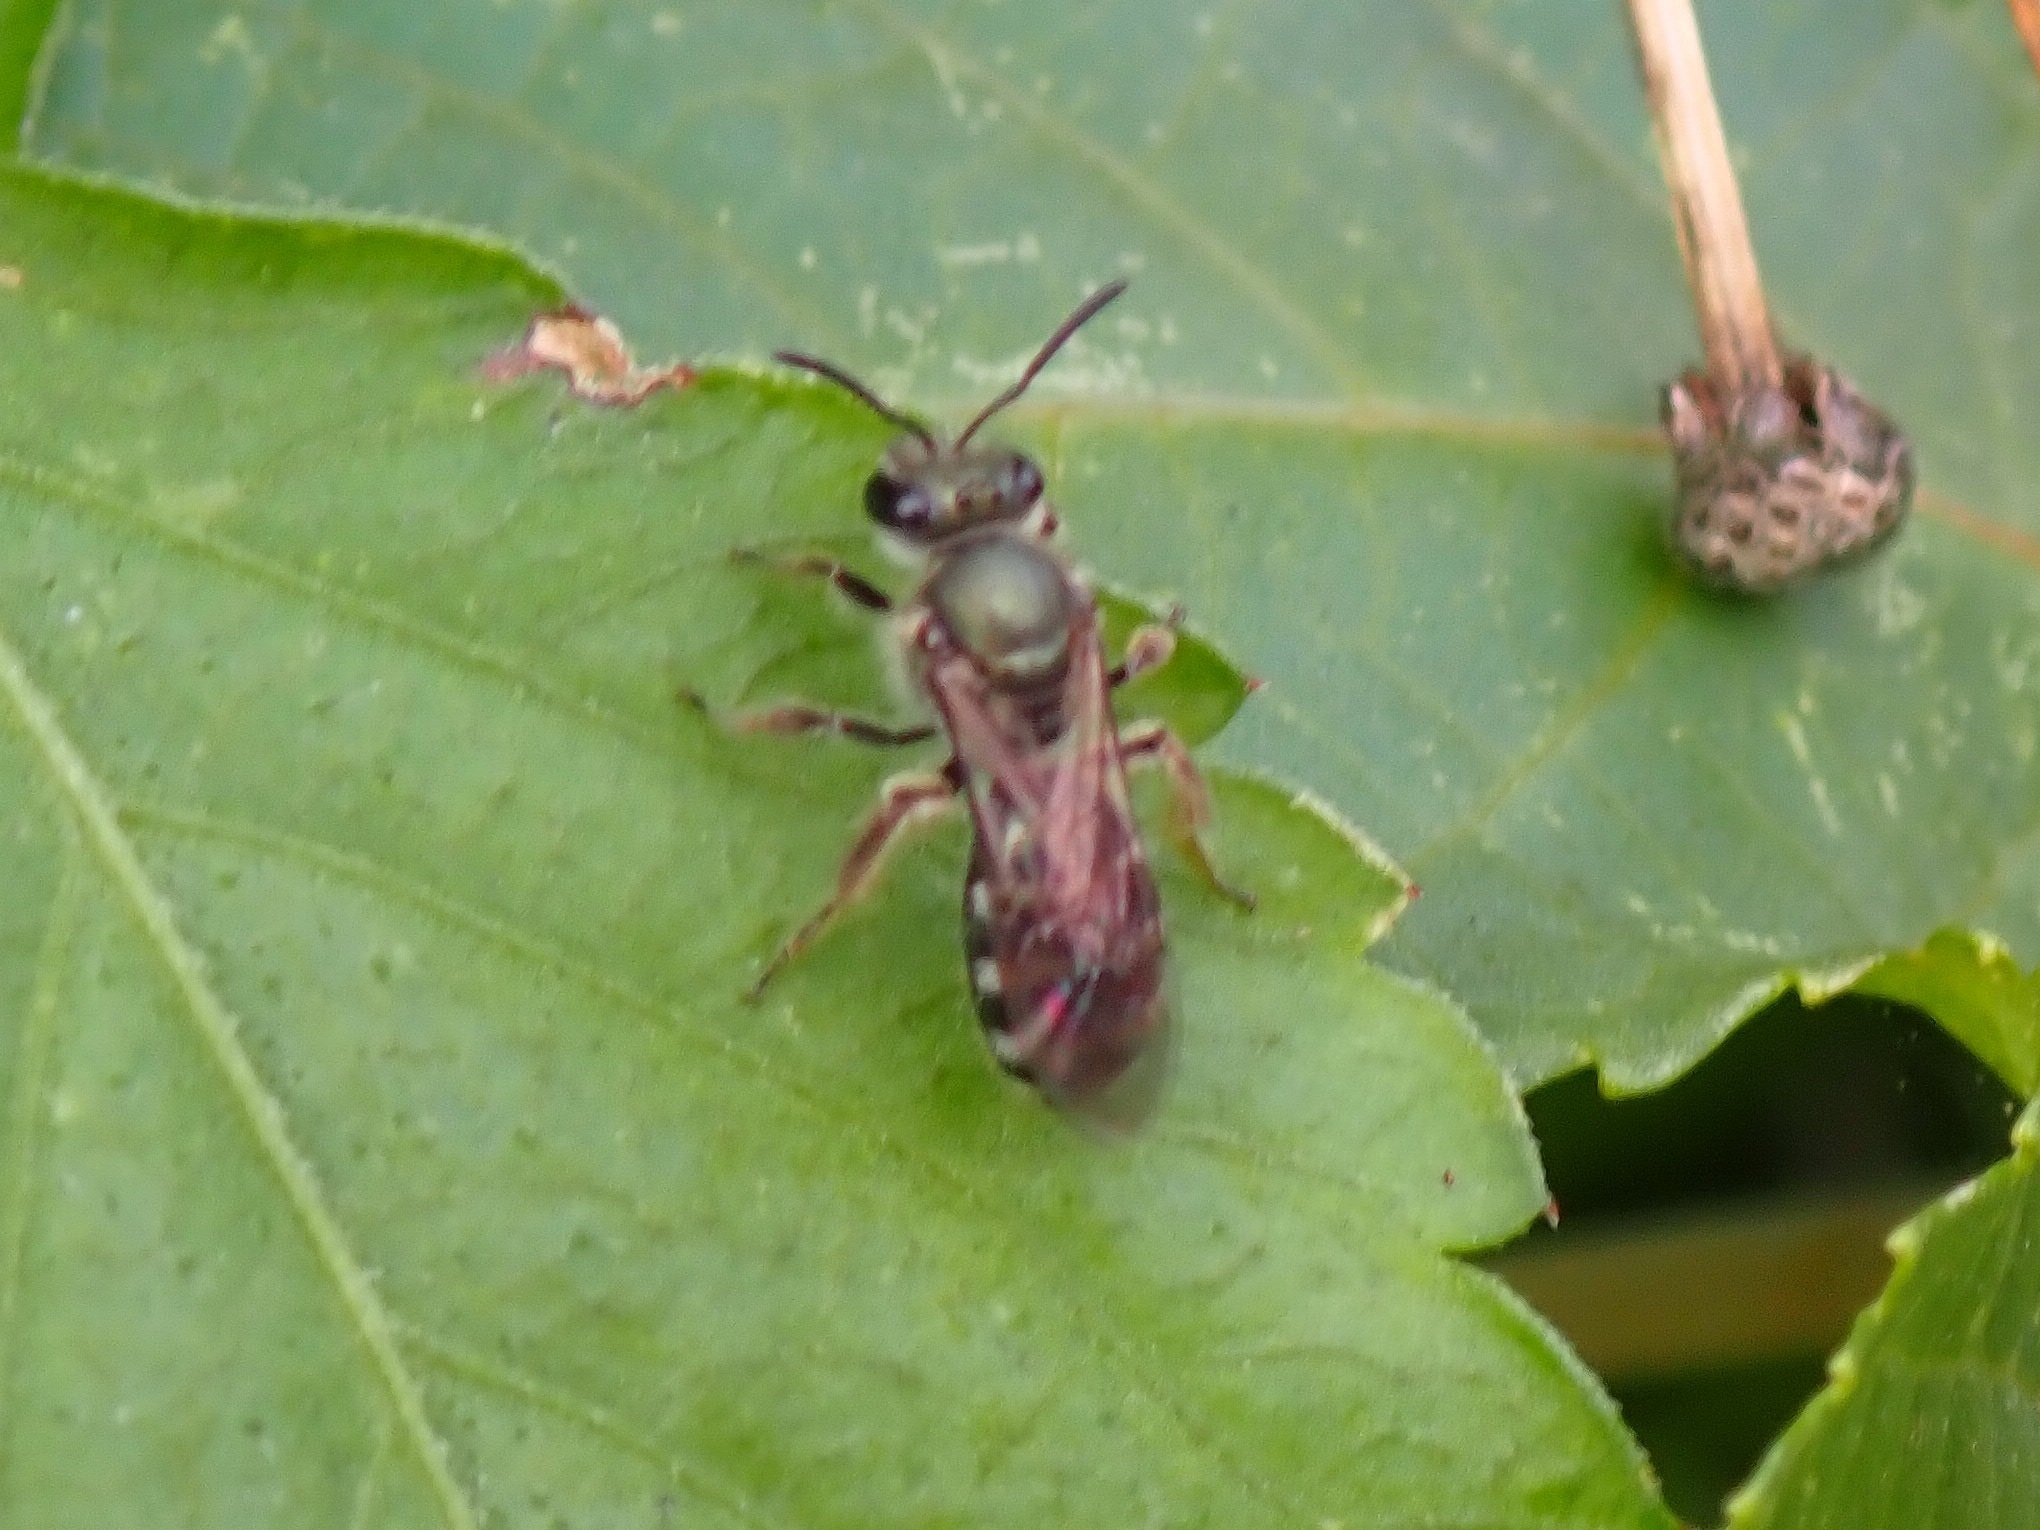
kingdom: Animalia
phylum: Arthropoda
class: Insecta
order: Hymenoptera
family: Halictidae
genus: Lasioglossum
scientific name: Lasioglossum chalcodes
